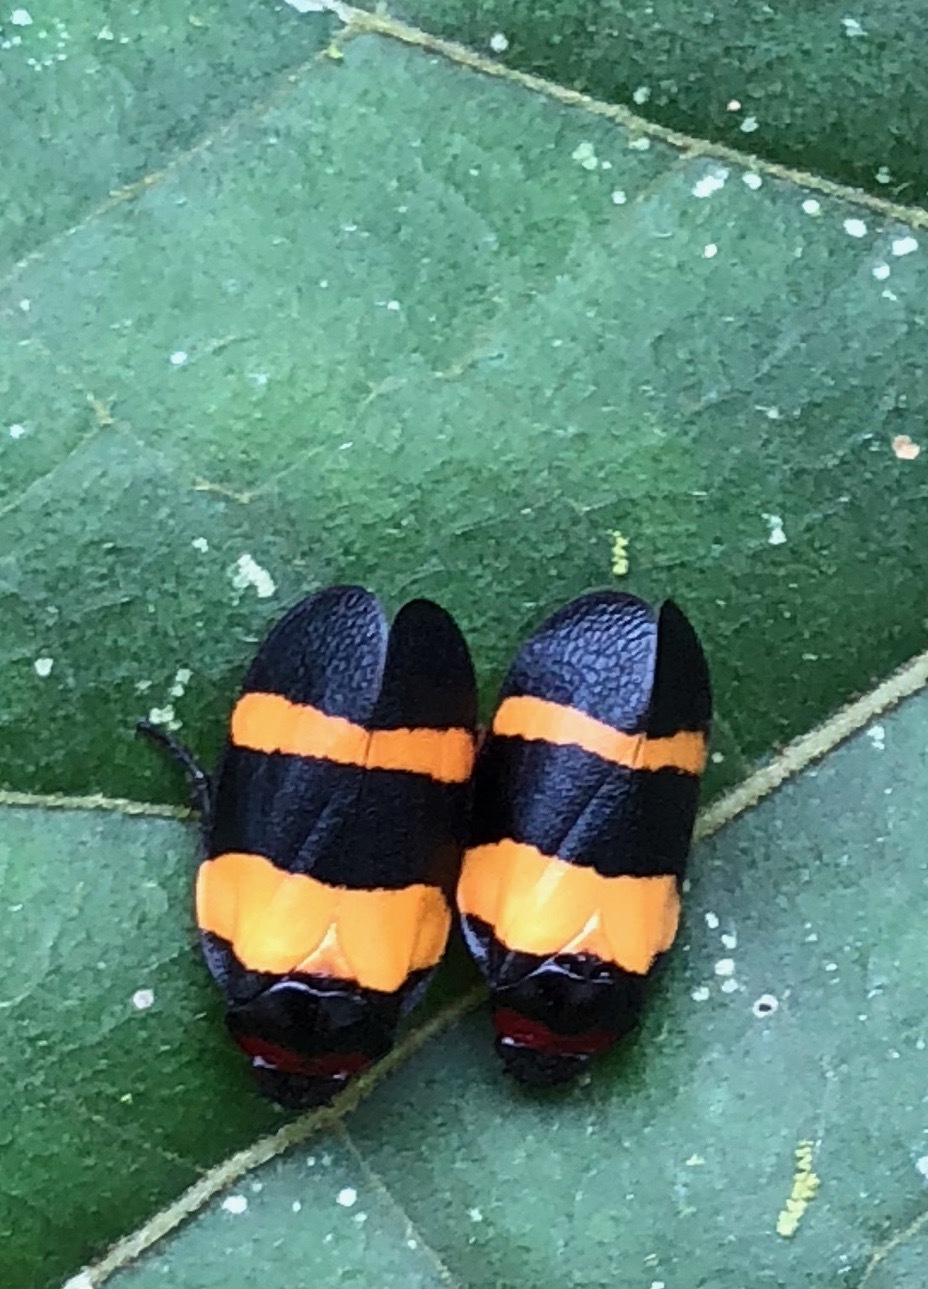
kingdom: Animalia
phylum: Arthropoda
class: Insecta
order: Hemiptera
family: Cercopidae
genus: Sphenorhina
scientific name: Sphenorhina nigricephala
